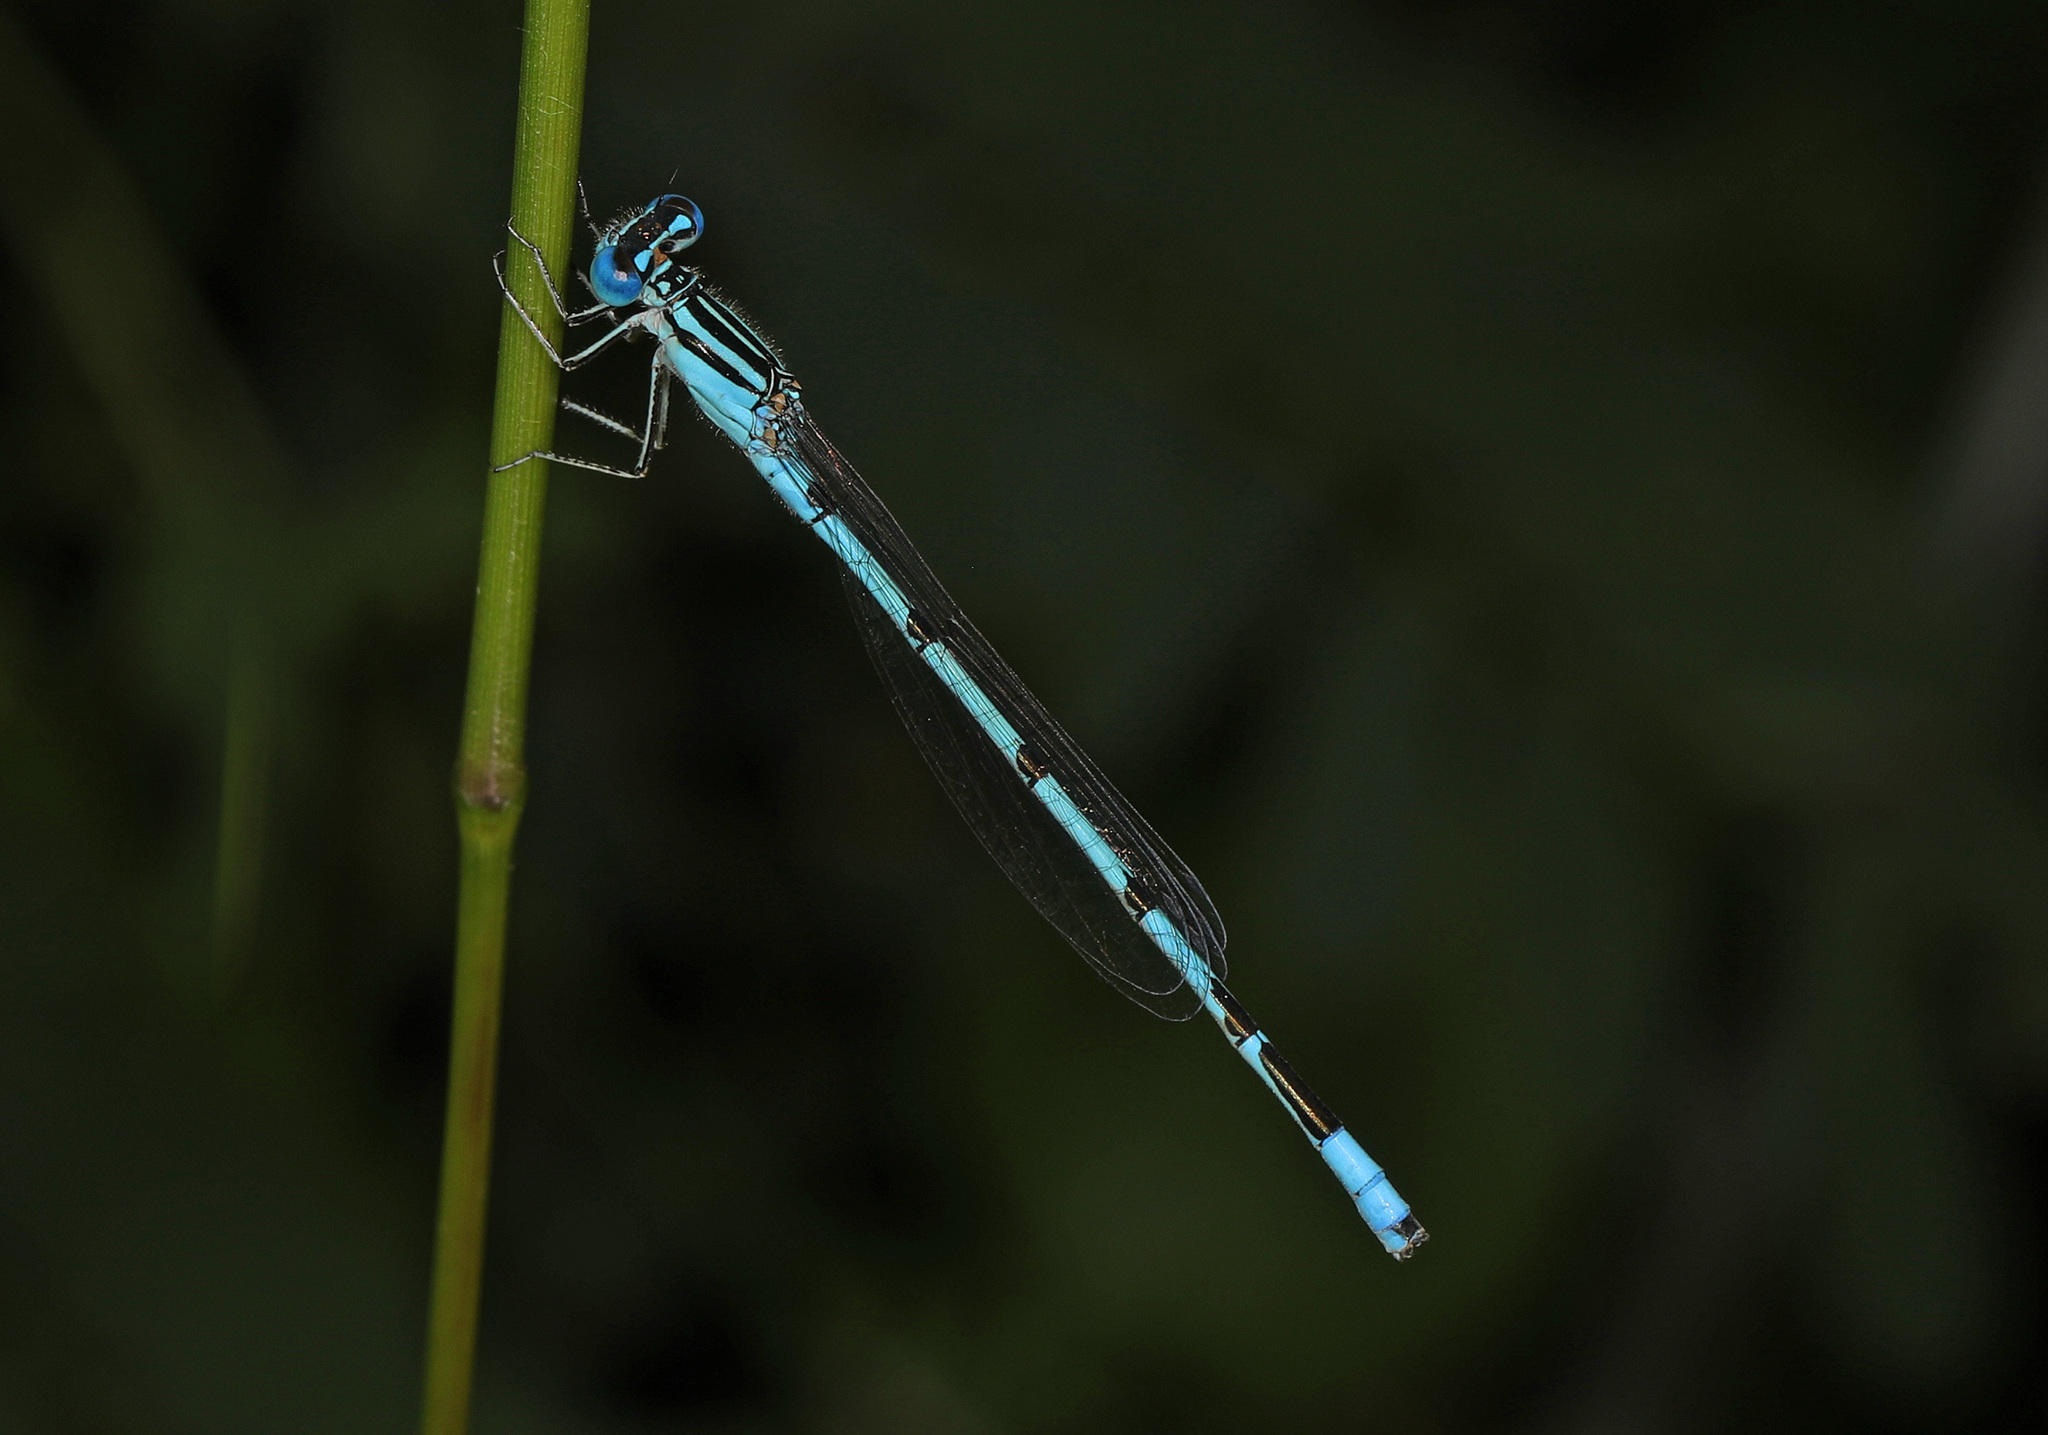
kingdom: Animalia
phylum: Arthropoda
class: Insecta
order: Odonata
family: Coenagrionidae
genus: Enallagma
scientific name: Enallagma durum
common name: Big bluet
